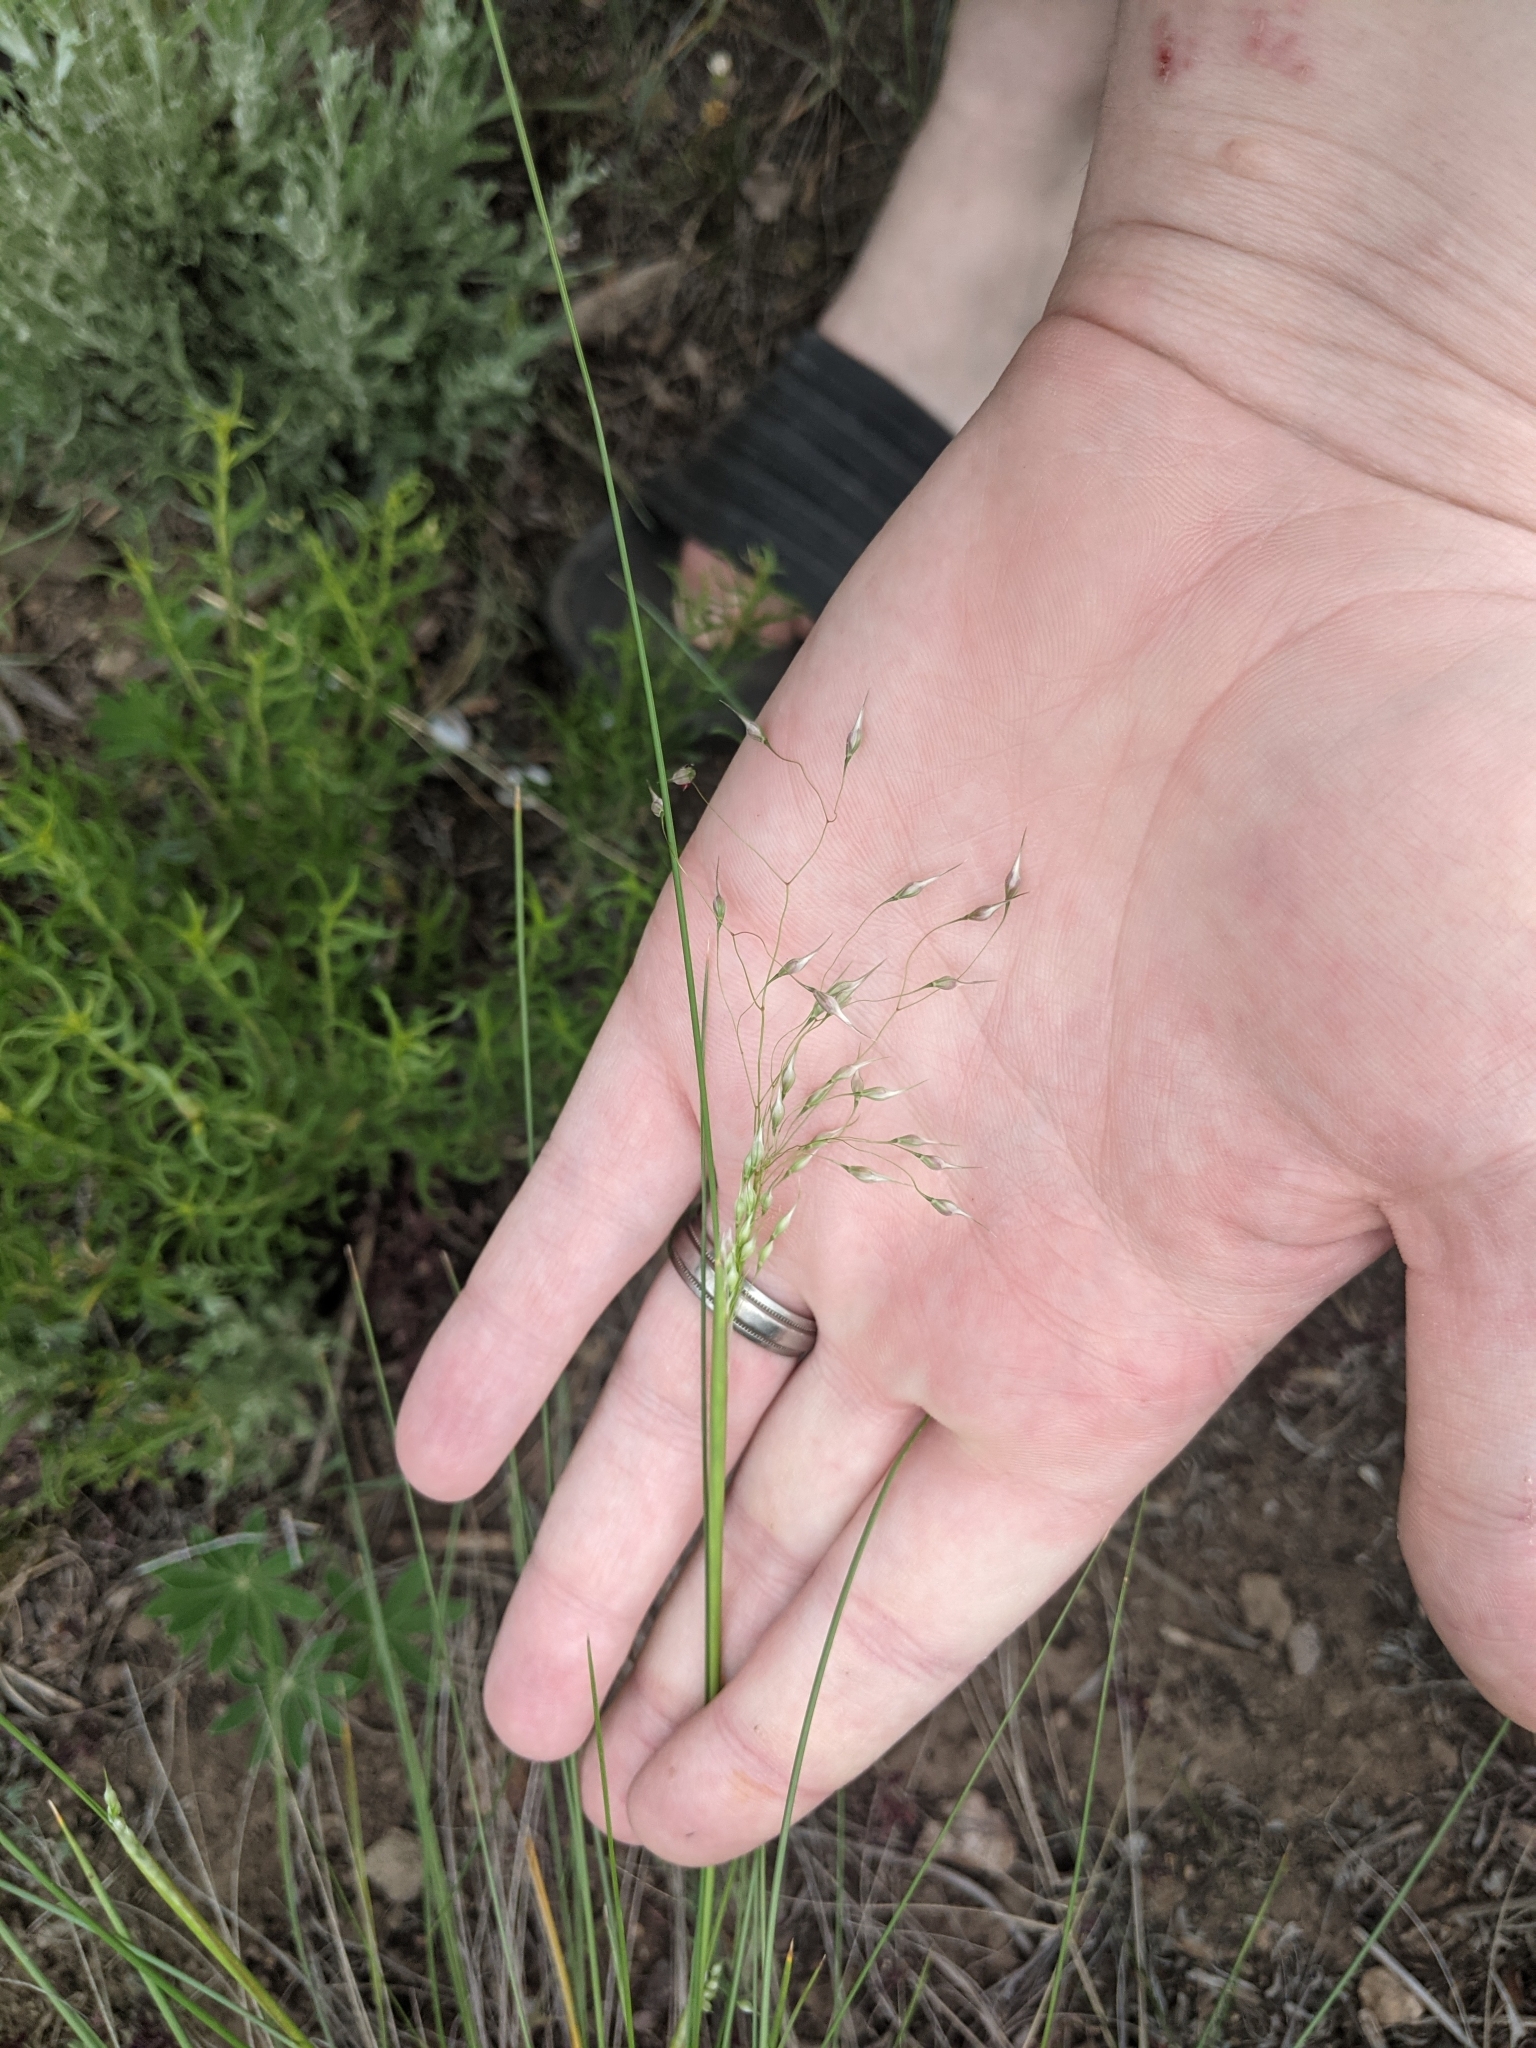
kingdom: Plantae
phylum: Tracheophyta
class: Liliopsida
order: Poales
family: Poaceae
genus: Eriocoma
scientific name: Eriocoma hymenoides
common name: Indian mountain ricegrass
